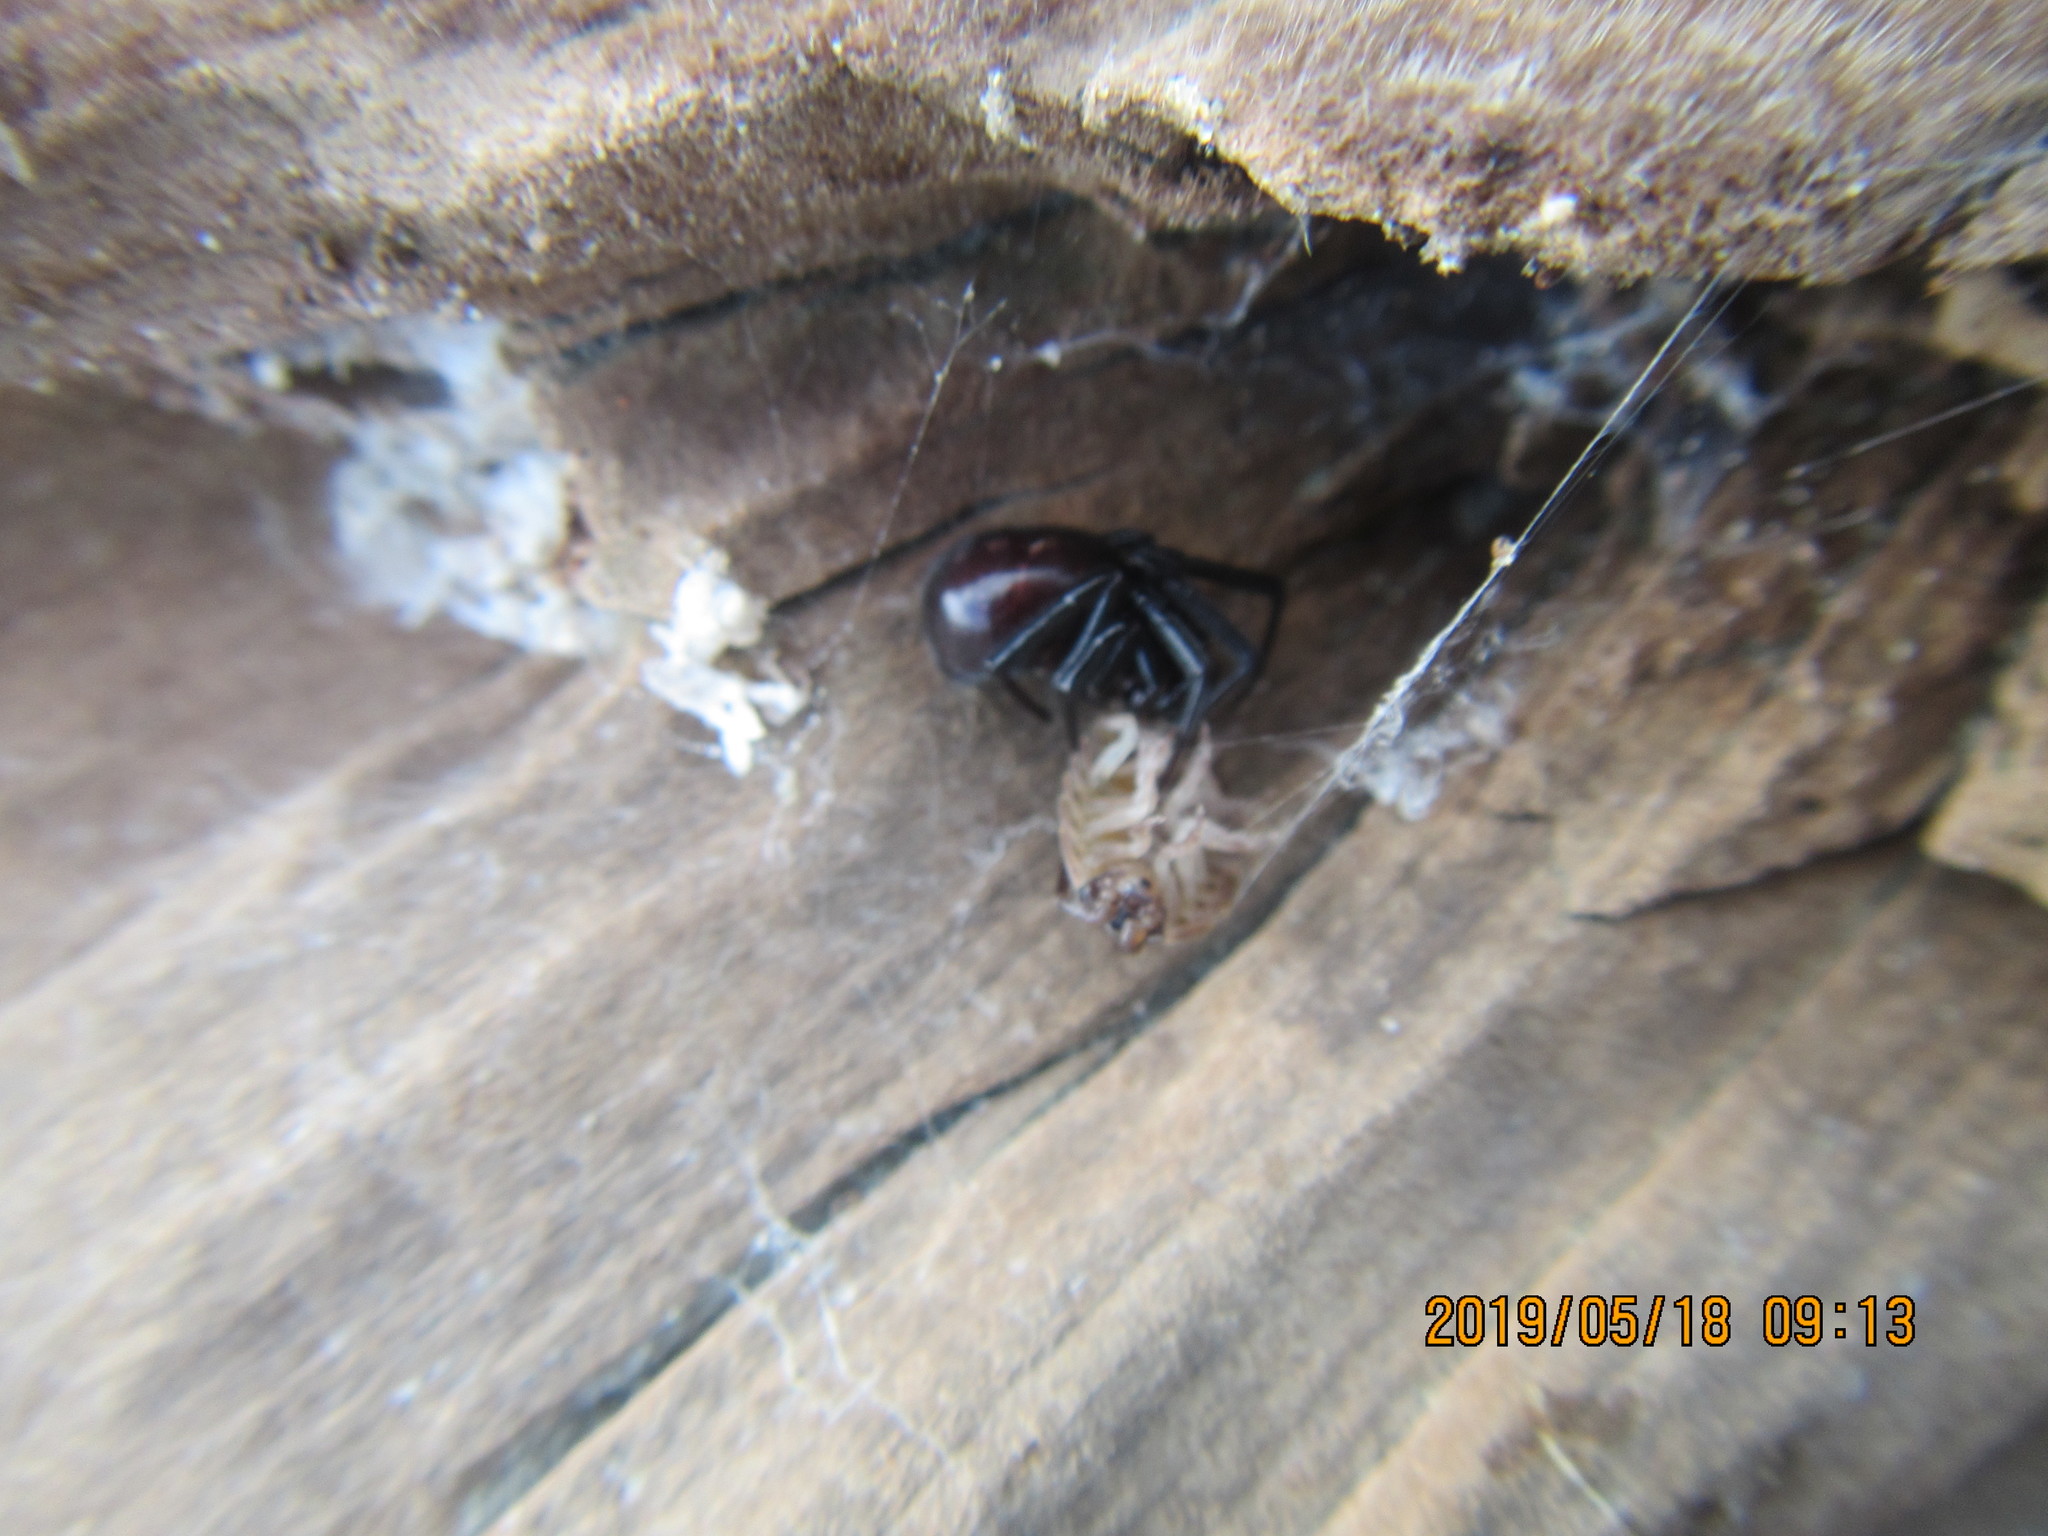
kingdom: Animalia
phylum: Arthropoda
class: Arachnida
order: Araneae
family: Theridiidae
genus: Steatoda
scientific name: Steatoda capensis
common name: Cobweb weaver
